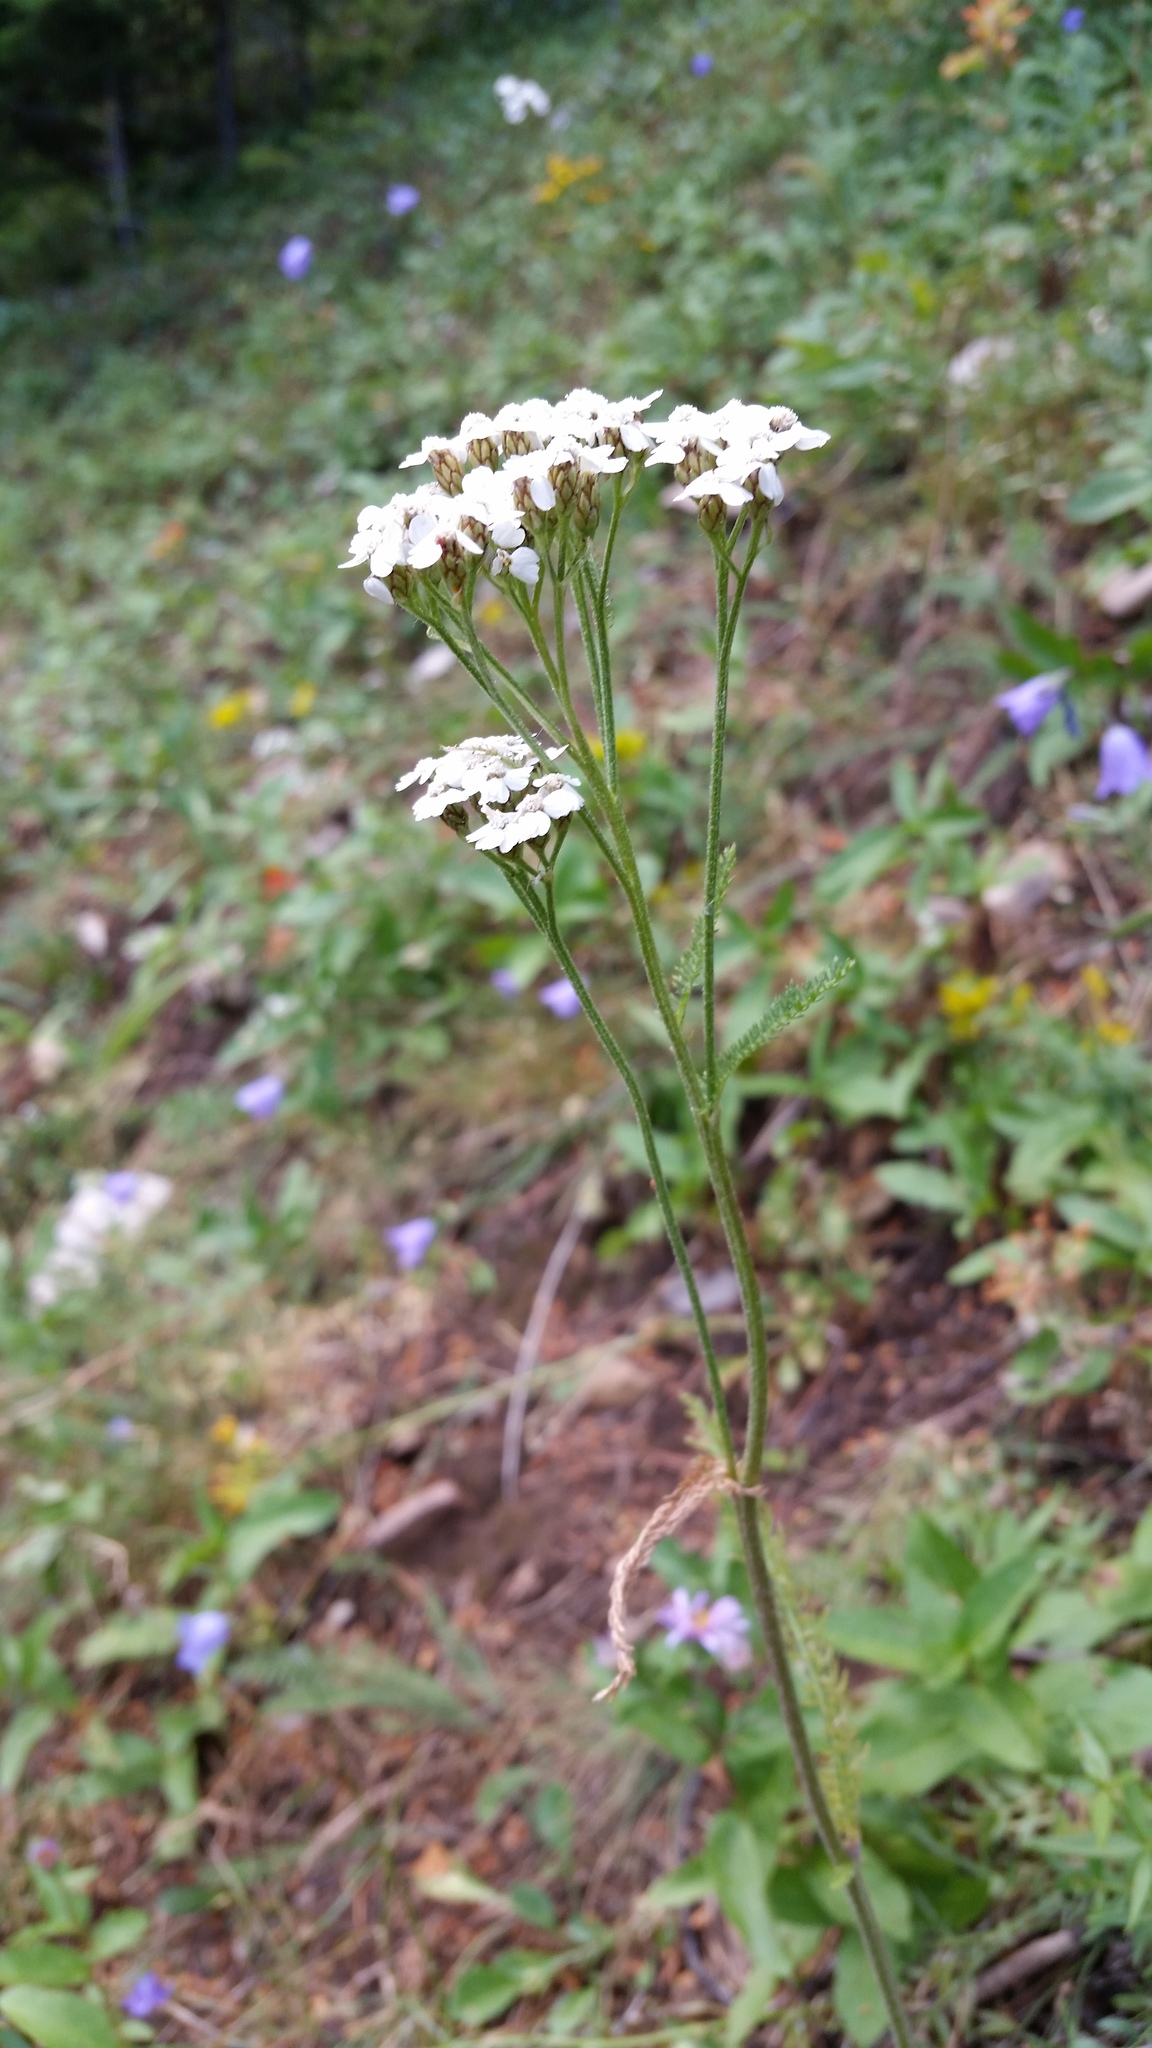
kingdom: Plantae
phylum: Tracheophyta
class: Magnoliopsida
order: Asterales
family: Asteraceae
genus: Achillea
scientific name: Achillea millefolium
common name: Yarrow
